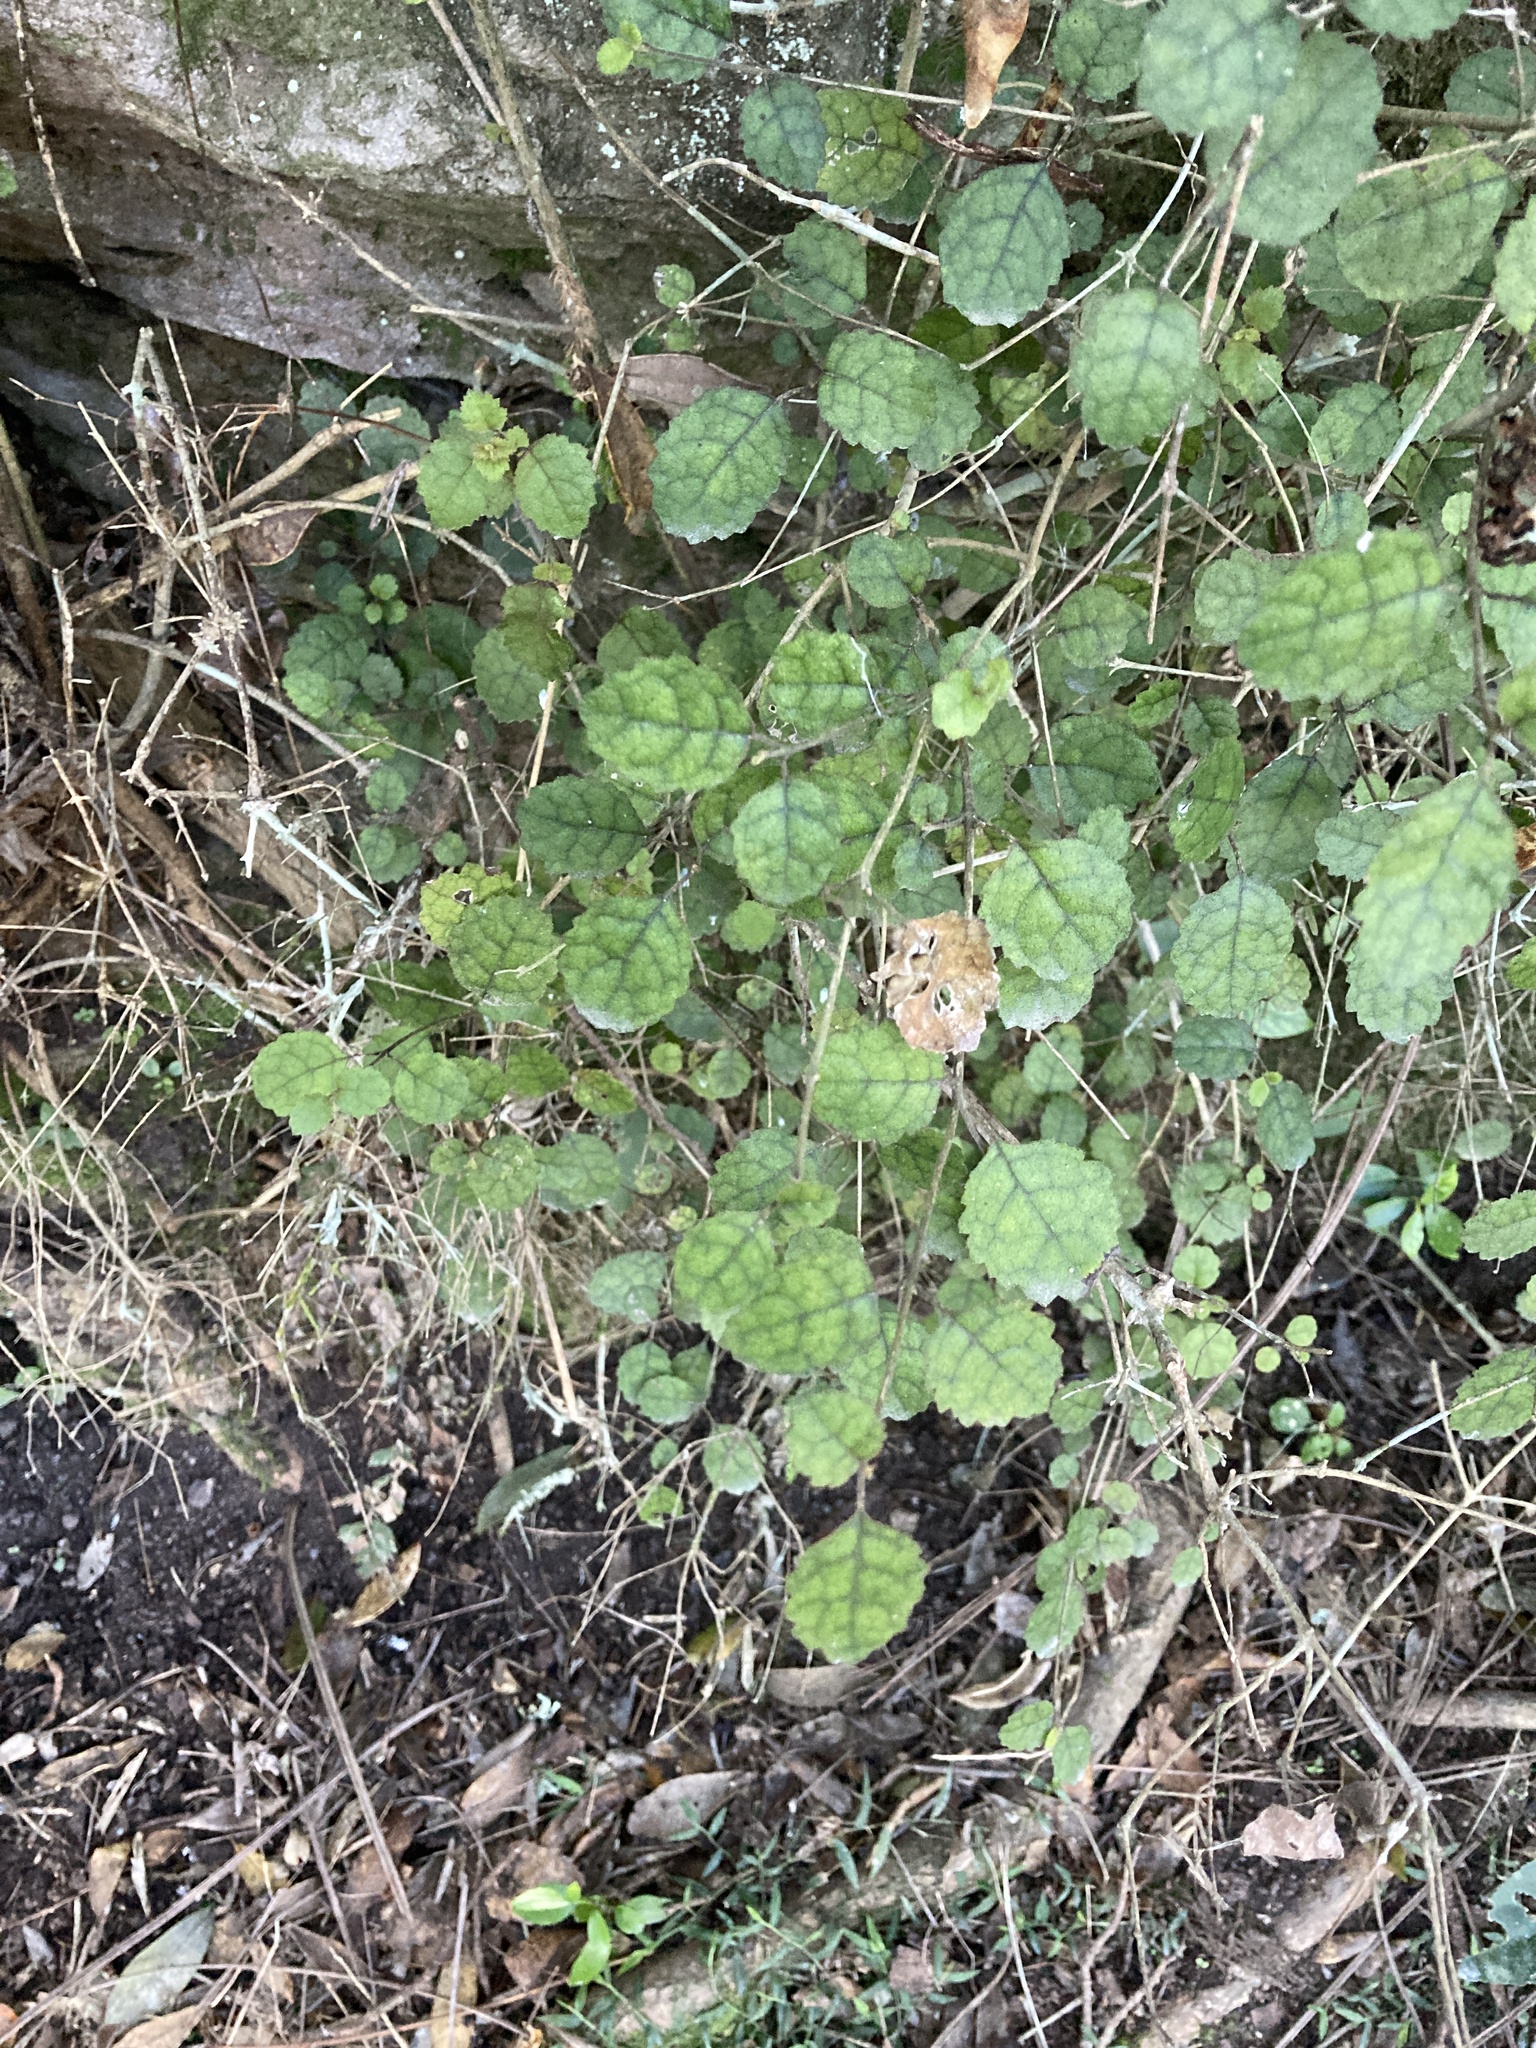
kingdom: Plantae
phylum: Tracheophyta
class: Magnoliopsida
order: Lamiales
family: Gesneriaceae
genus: Rhabdothamnus
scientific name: Rhabdothamnus solandri
